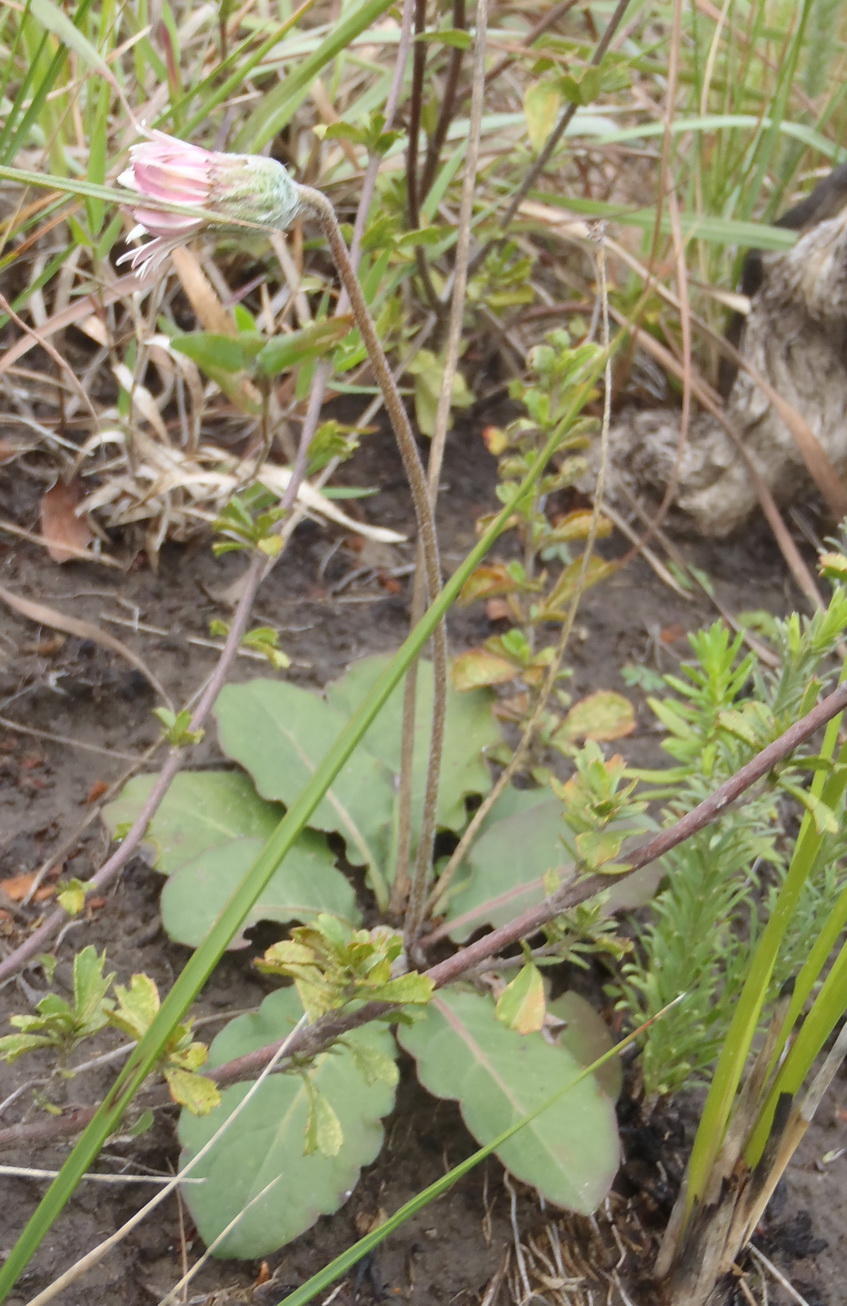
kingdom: Plantae
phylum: Tracheophyta
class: Magnoliopsida
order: Asterales
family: Asteraceae
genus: Piloselloides
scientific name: Piloselloides hirsuta
